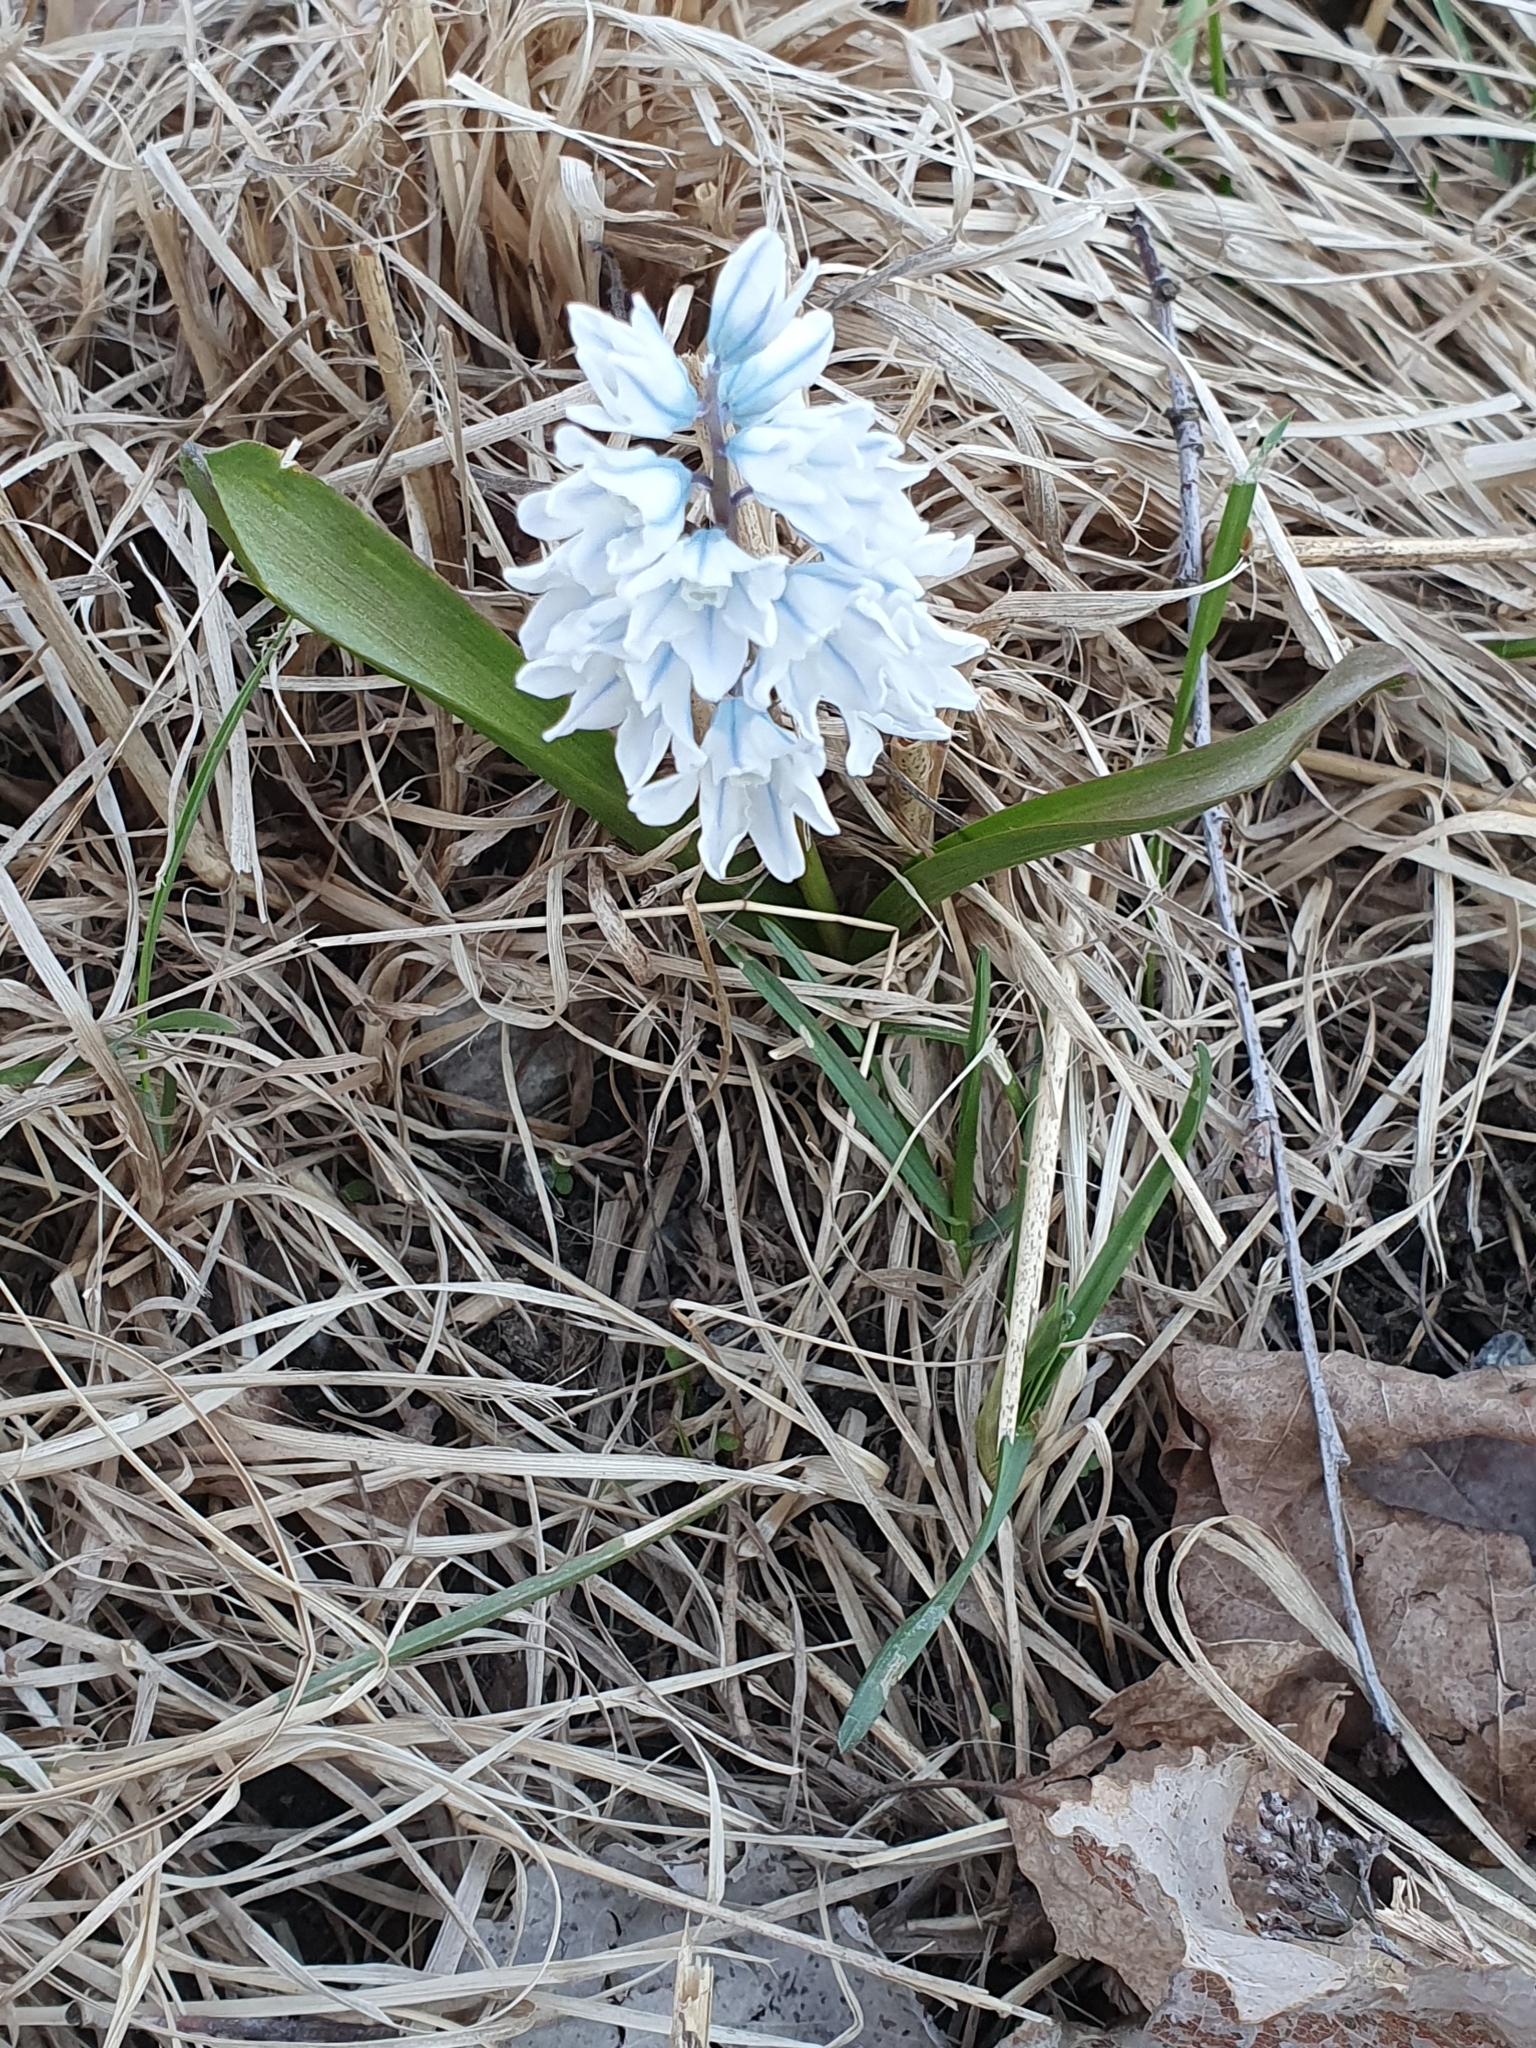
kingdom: Plantae
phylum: Tracheophyta
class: Liliopsida
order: Asparagales
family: Asparagaceae
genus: Puschkinia
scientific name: Puschkinia scilloides
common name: Striped squill
